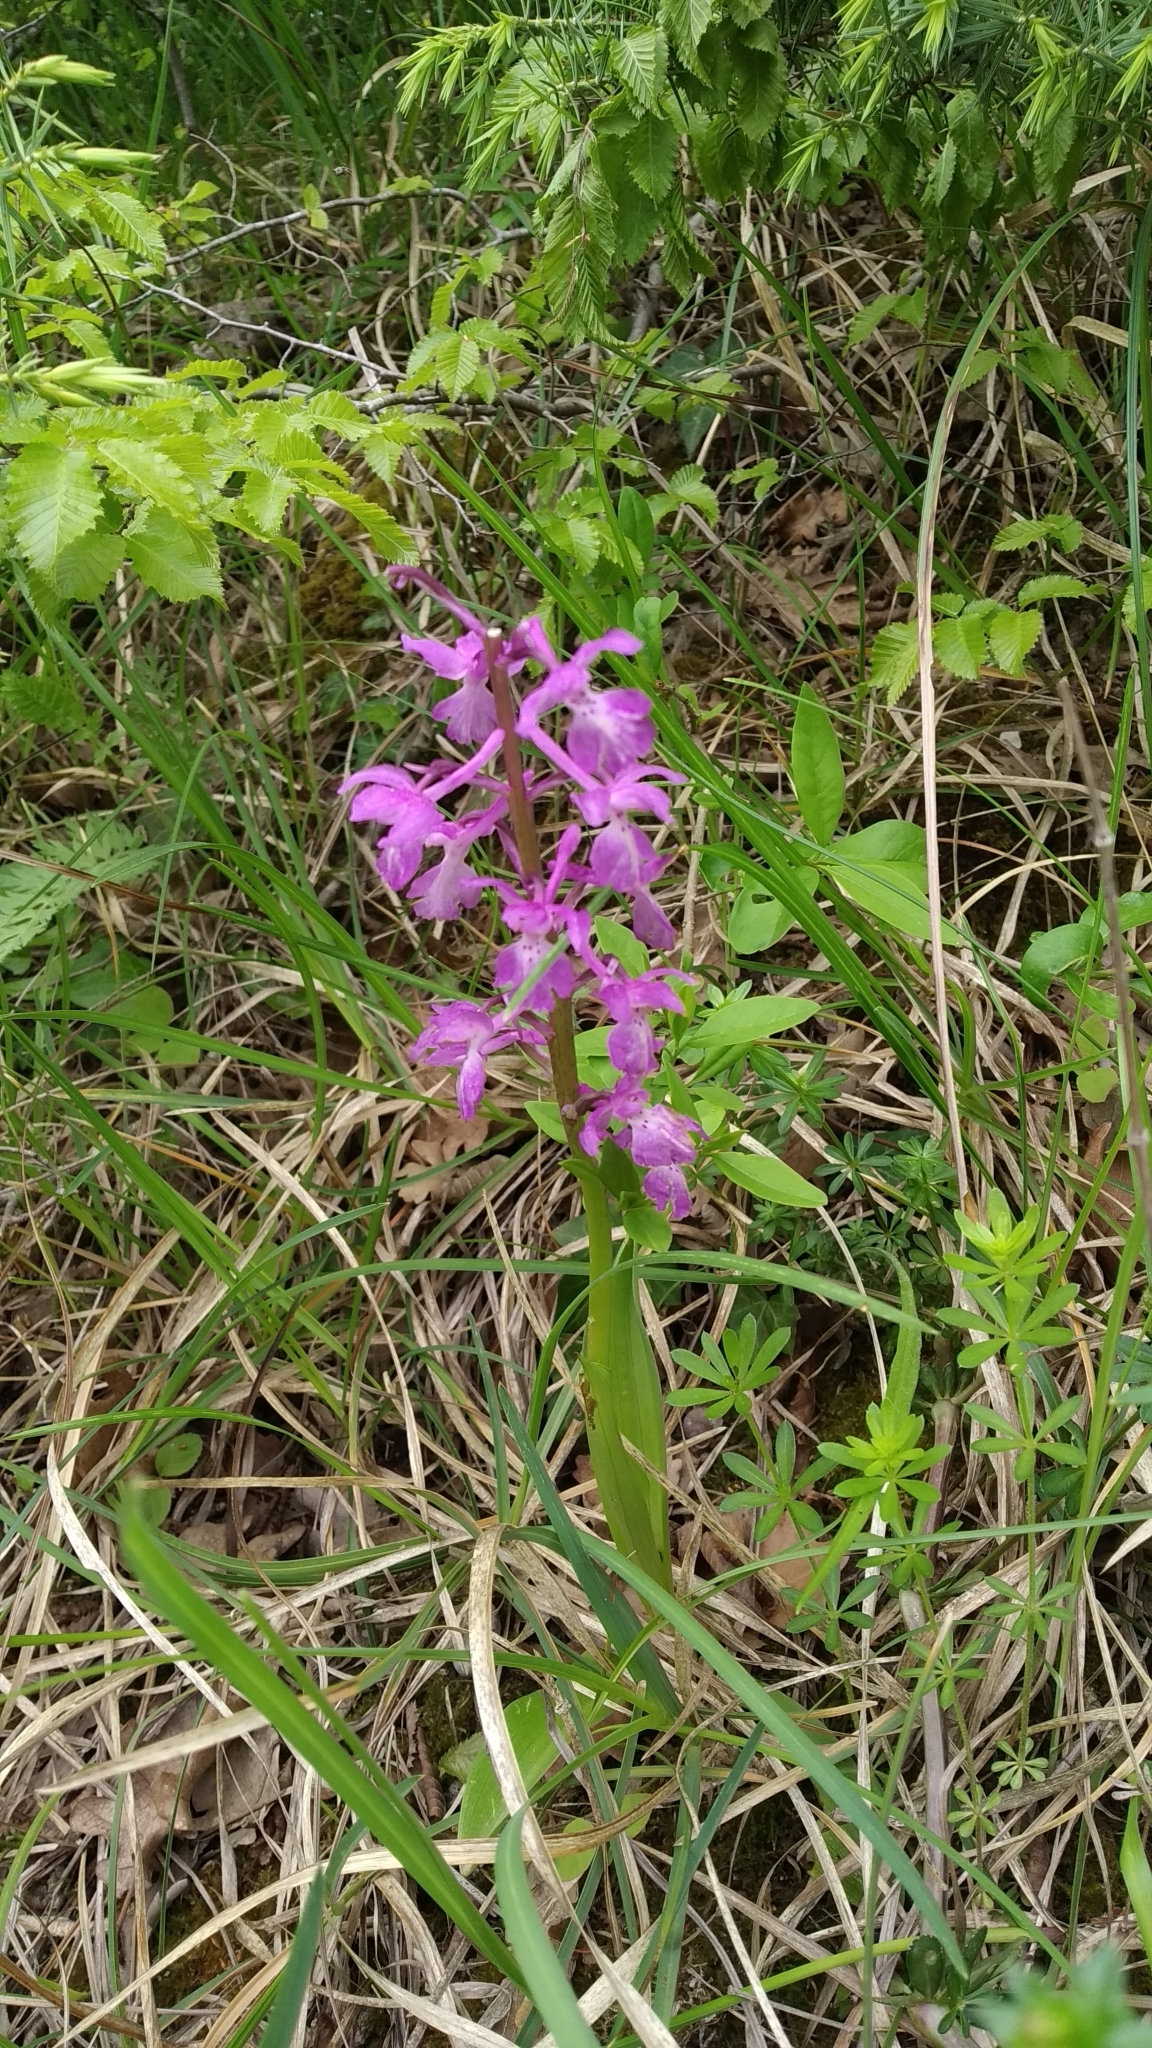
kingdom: Plantae
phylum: Tracheophyta
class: Liliopsida
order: Asparagales
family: Orchidaceae
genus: Orchis
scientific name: Orchis mascula
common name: Early-purple orchid
